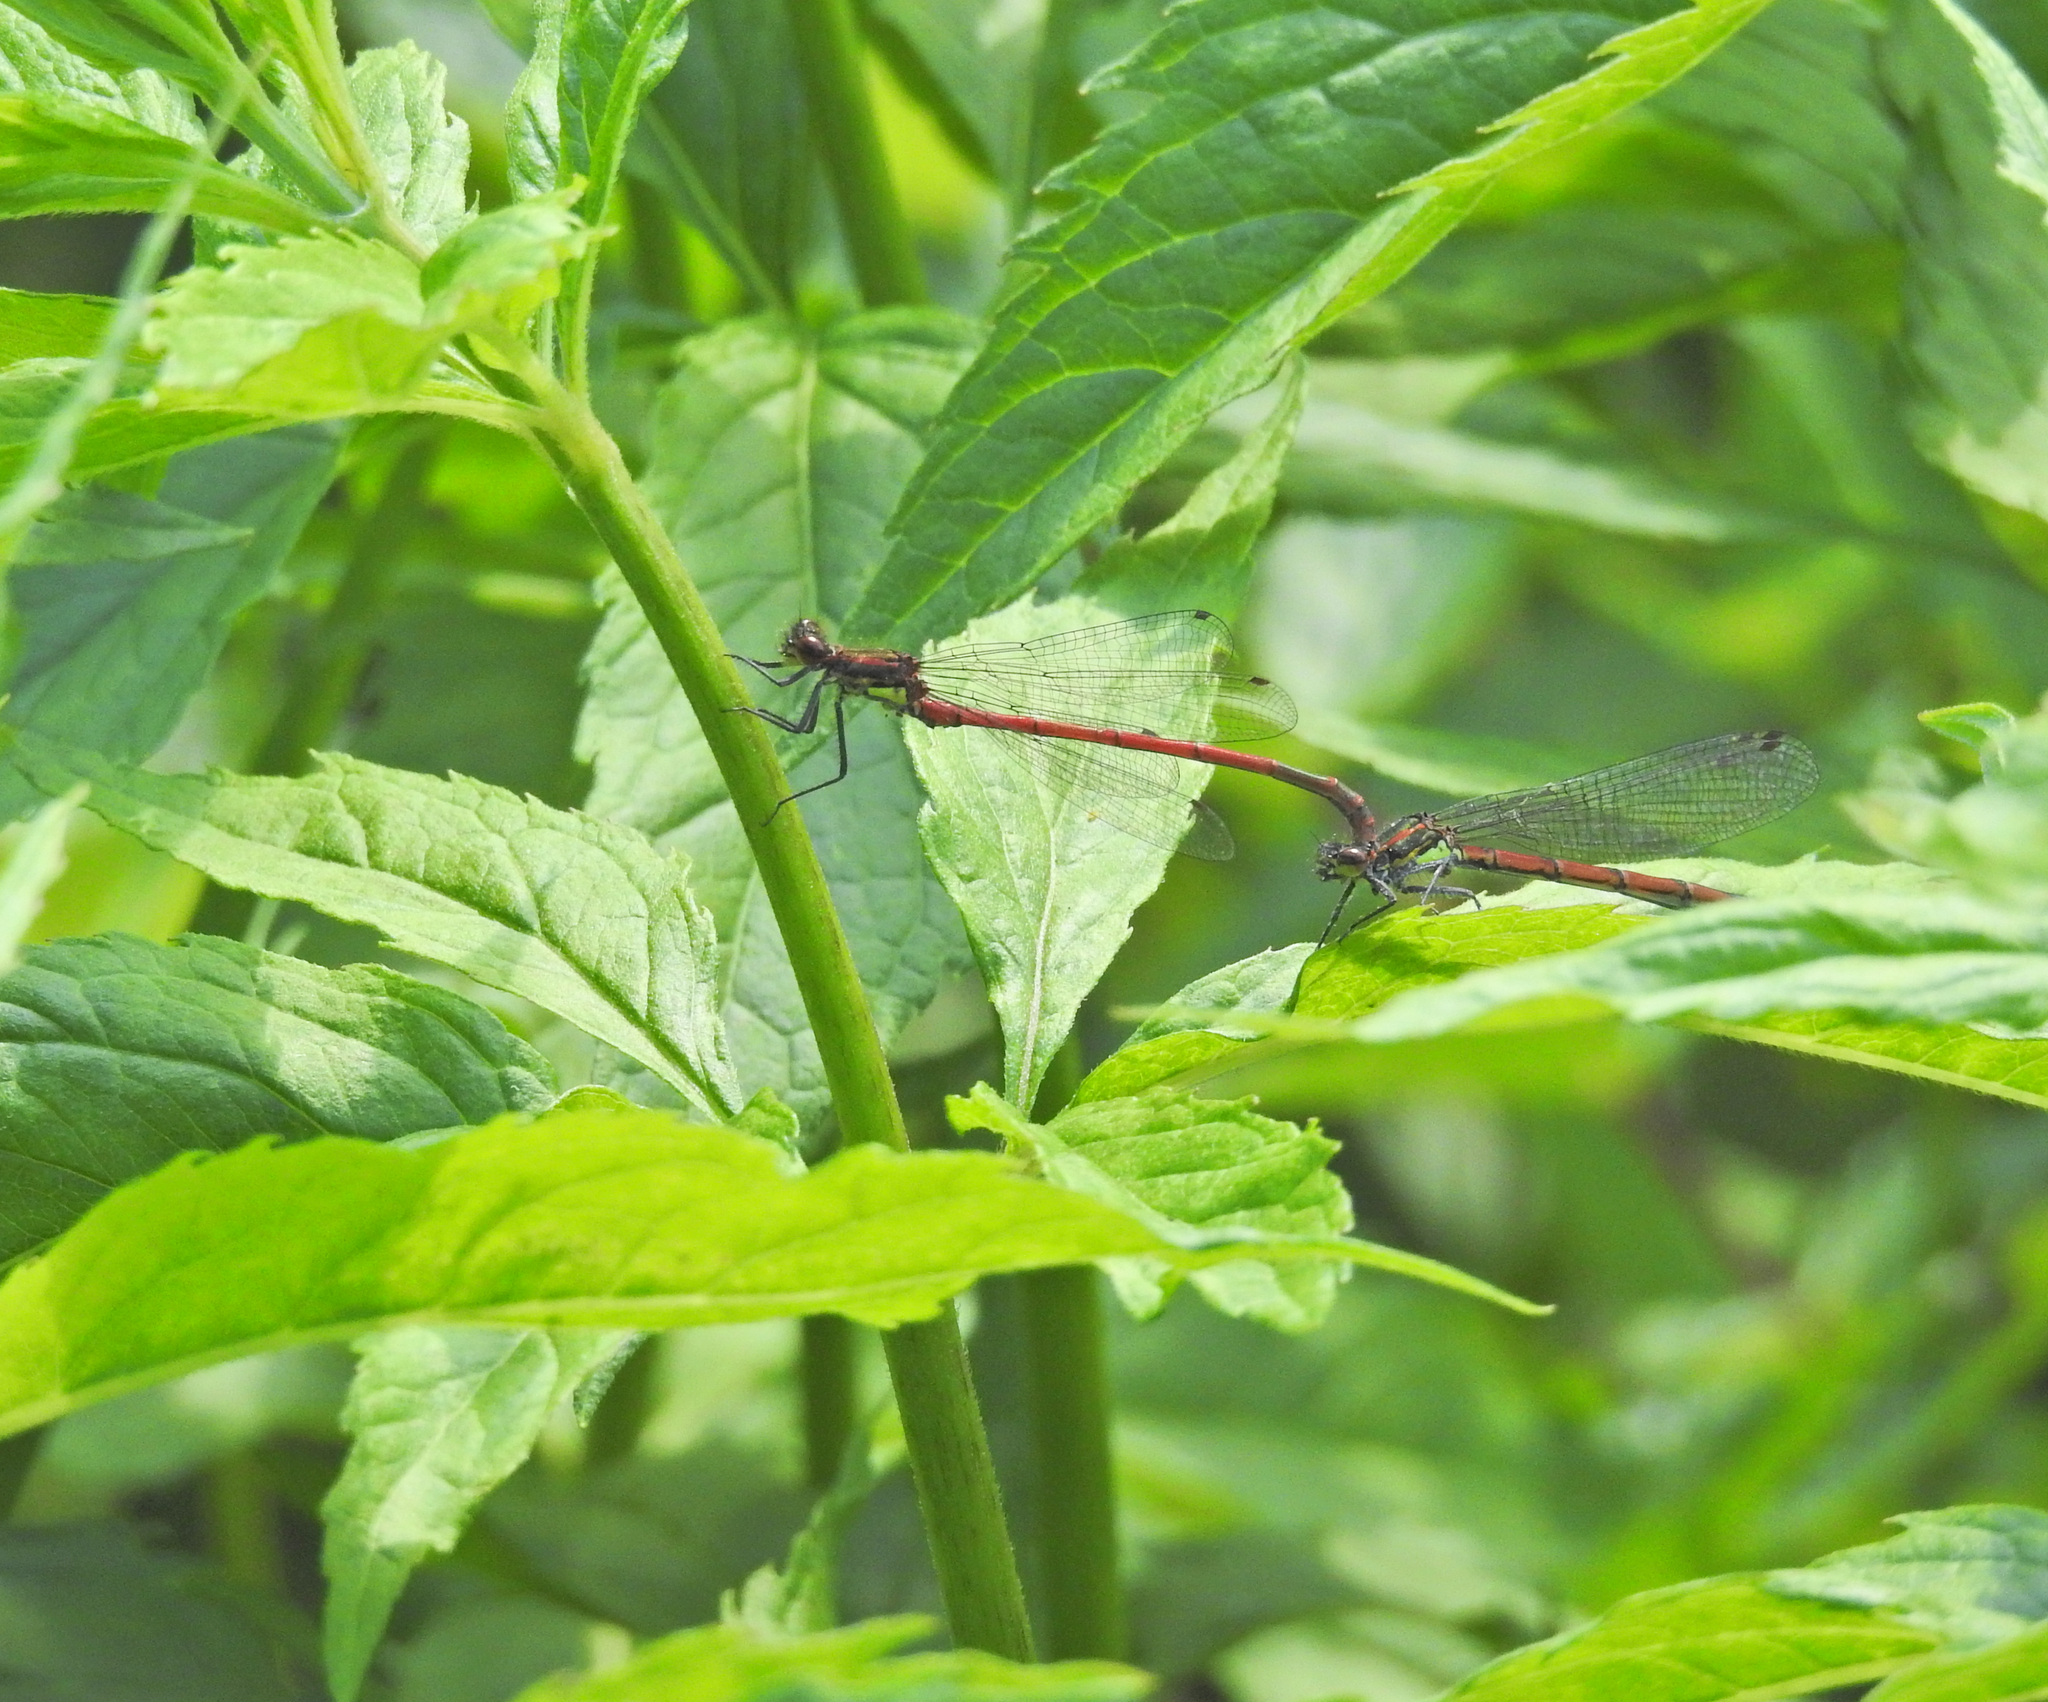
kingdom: Animalia
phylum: Arthropoda
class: Insecta
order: Odonata
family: Coenagrionidae
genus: Pyrrhosoma
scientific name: Pyrrhosoma nymphula
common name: Large red damsel
